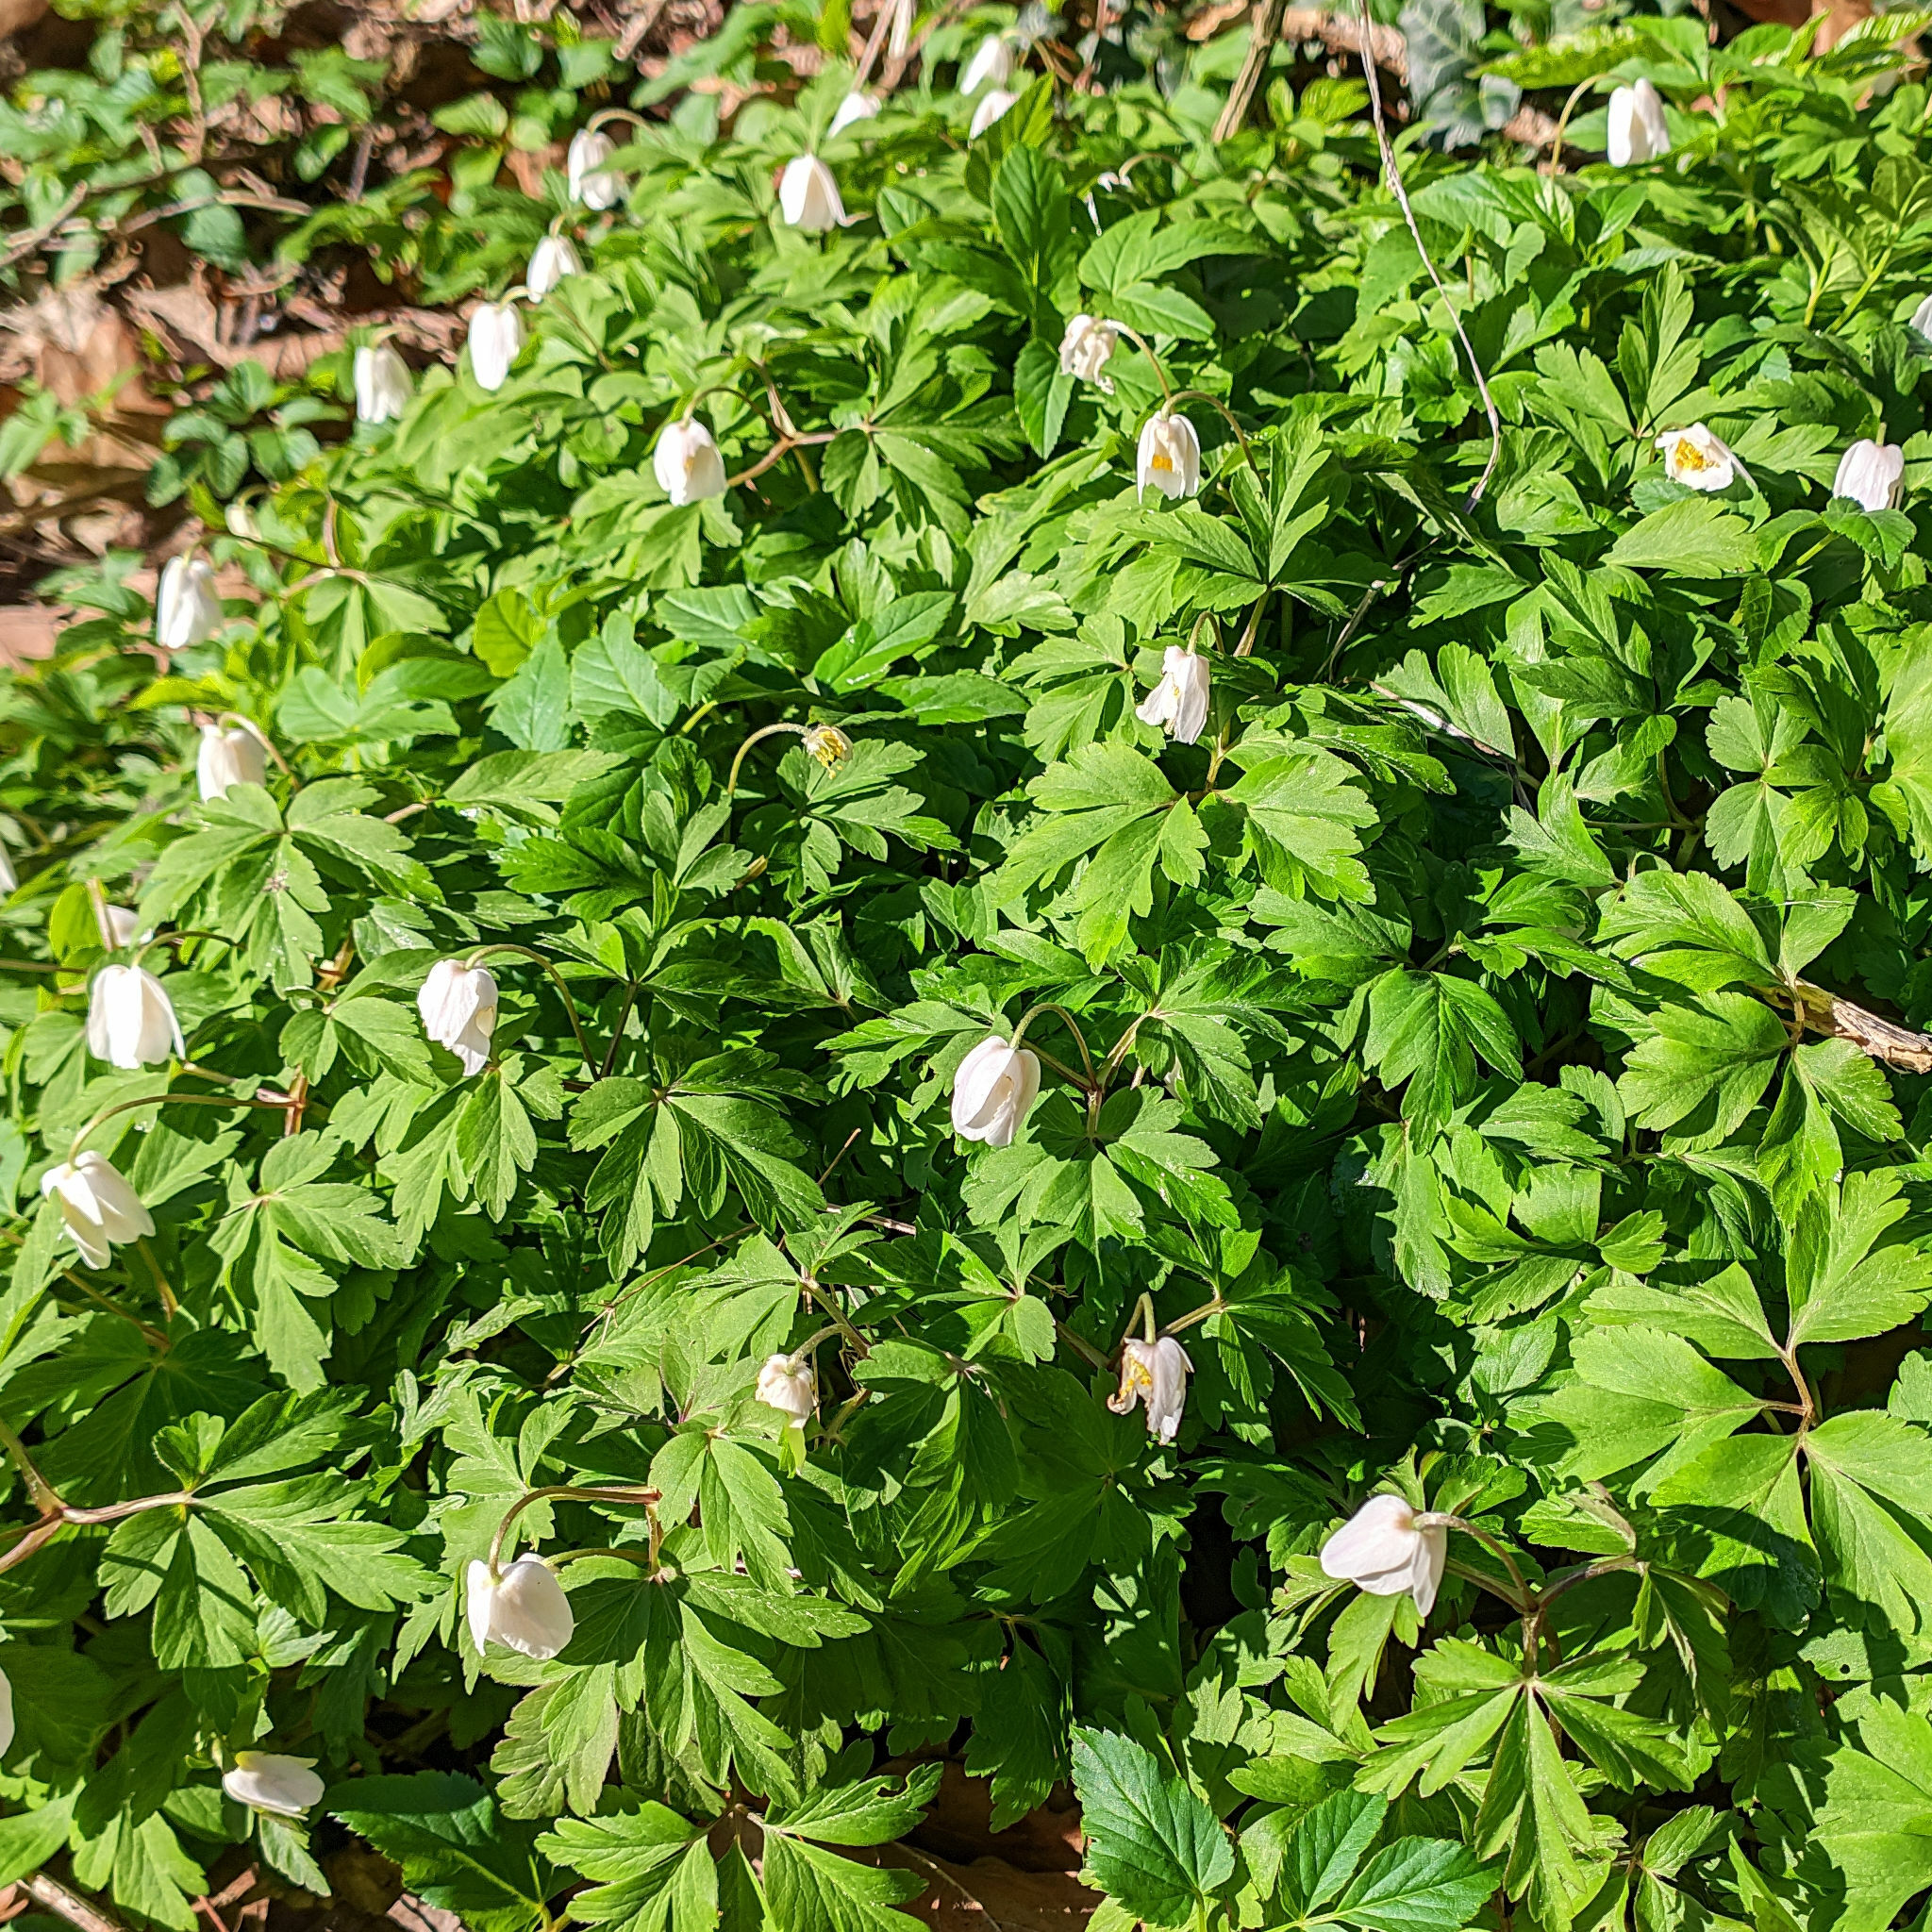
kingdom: Plantae
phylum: Tracheophyta
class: Magnoliopsida
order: Ranunculales
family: Ranunculaceae
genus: Anemone
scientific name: Anemone nemorosa
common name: Wood anemone
